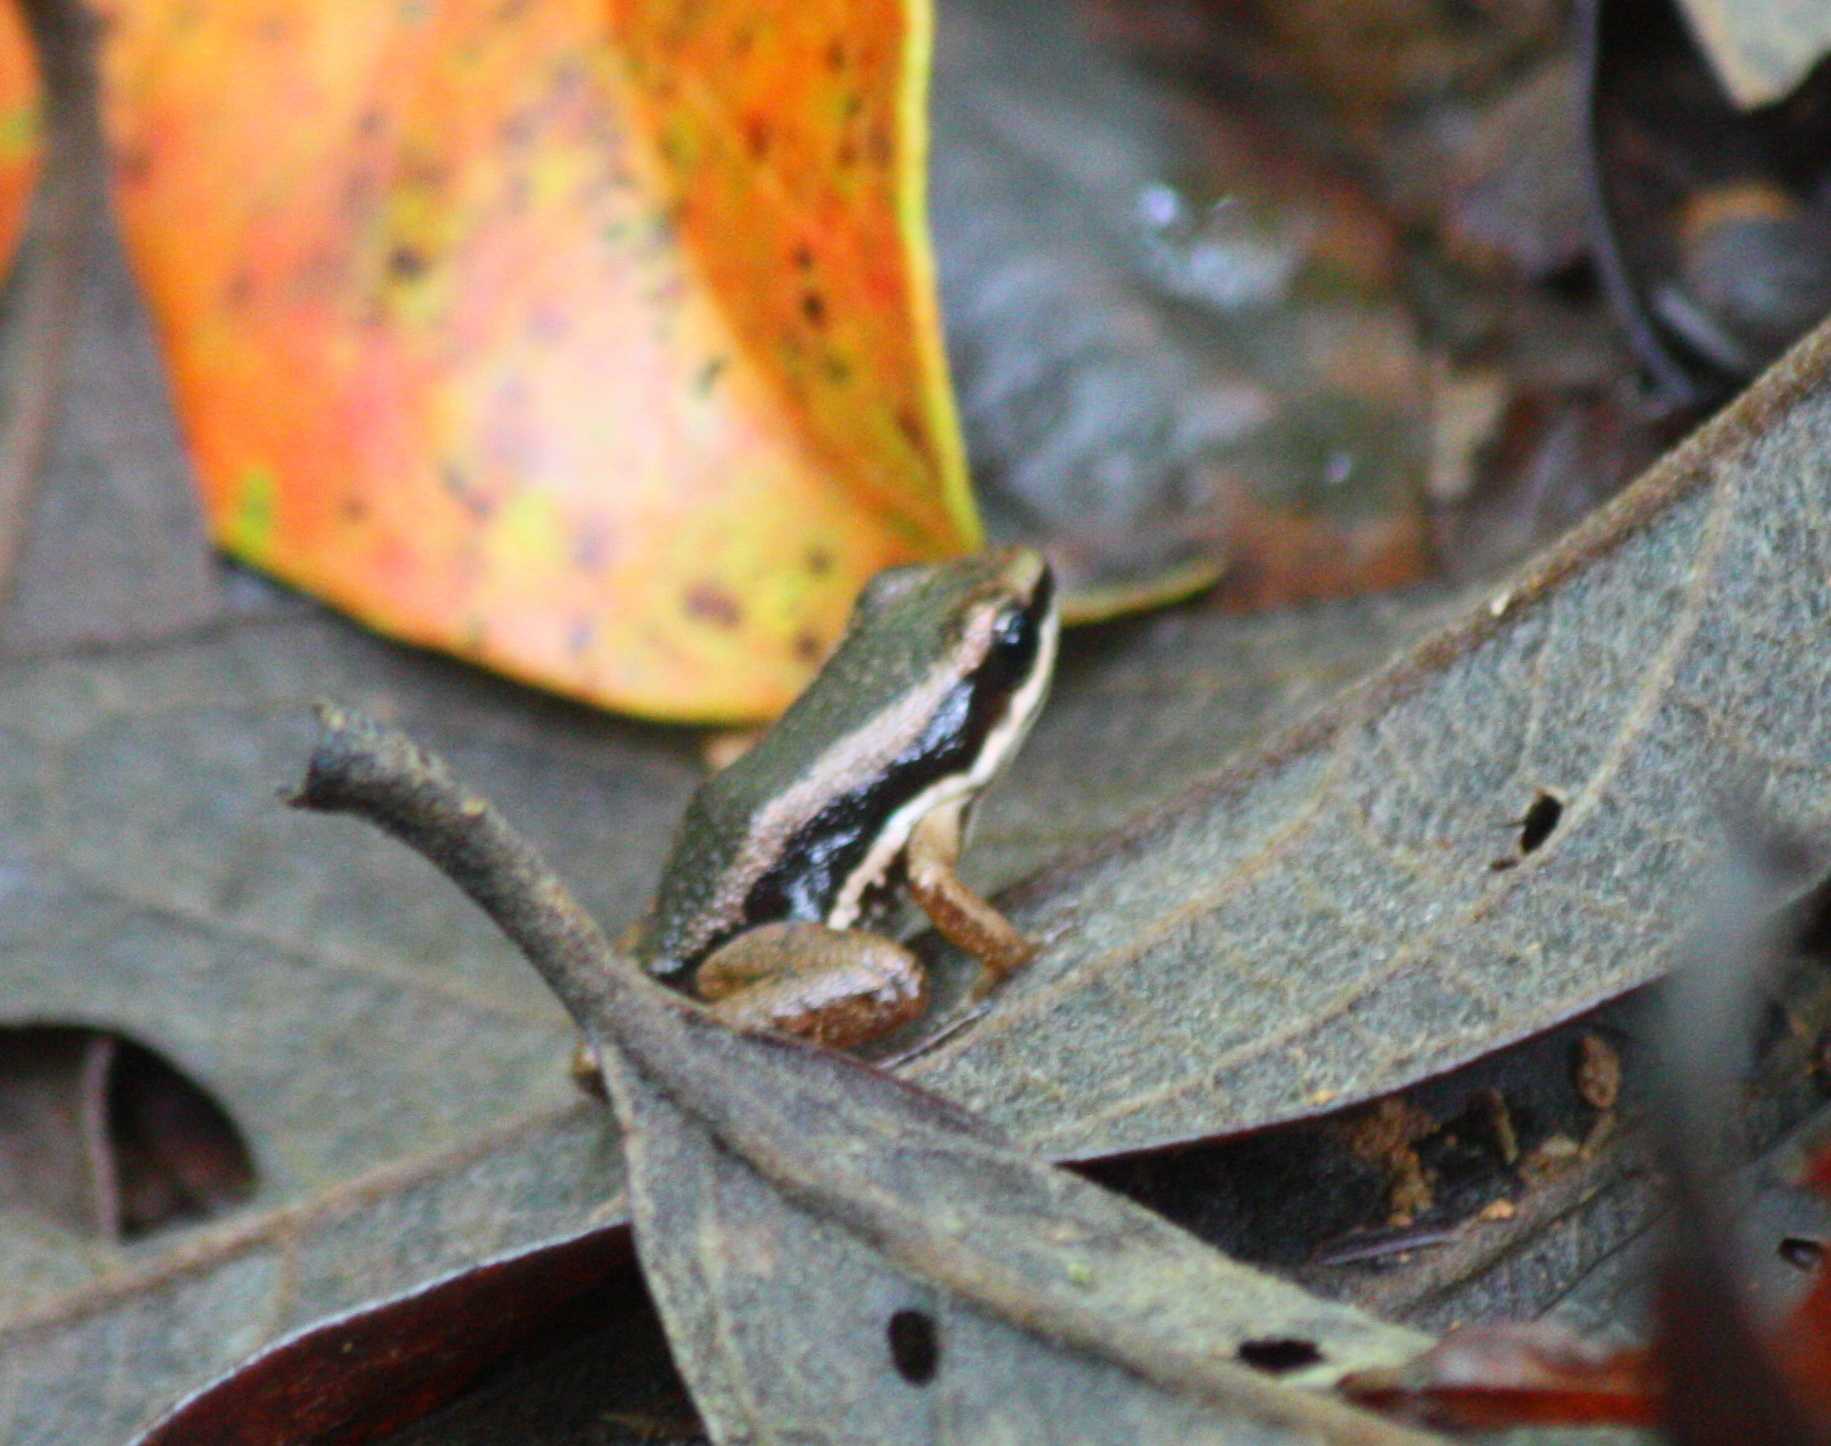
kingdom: Animalia
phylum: Chordata
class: Amphibia
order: Anura
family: Aromobatidae
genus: Allobates
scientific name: Allobates talamancae
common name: Talamanca rocket frog
